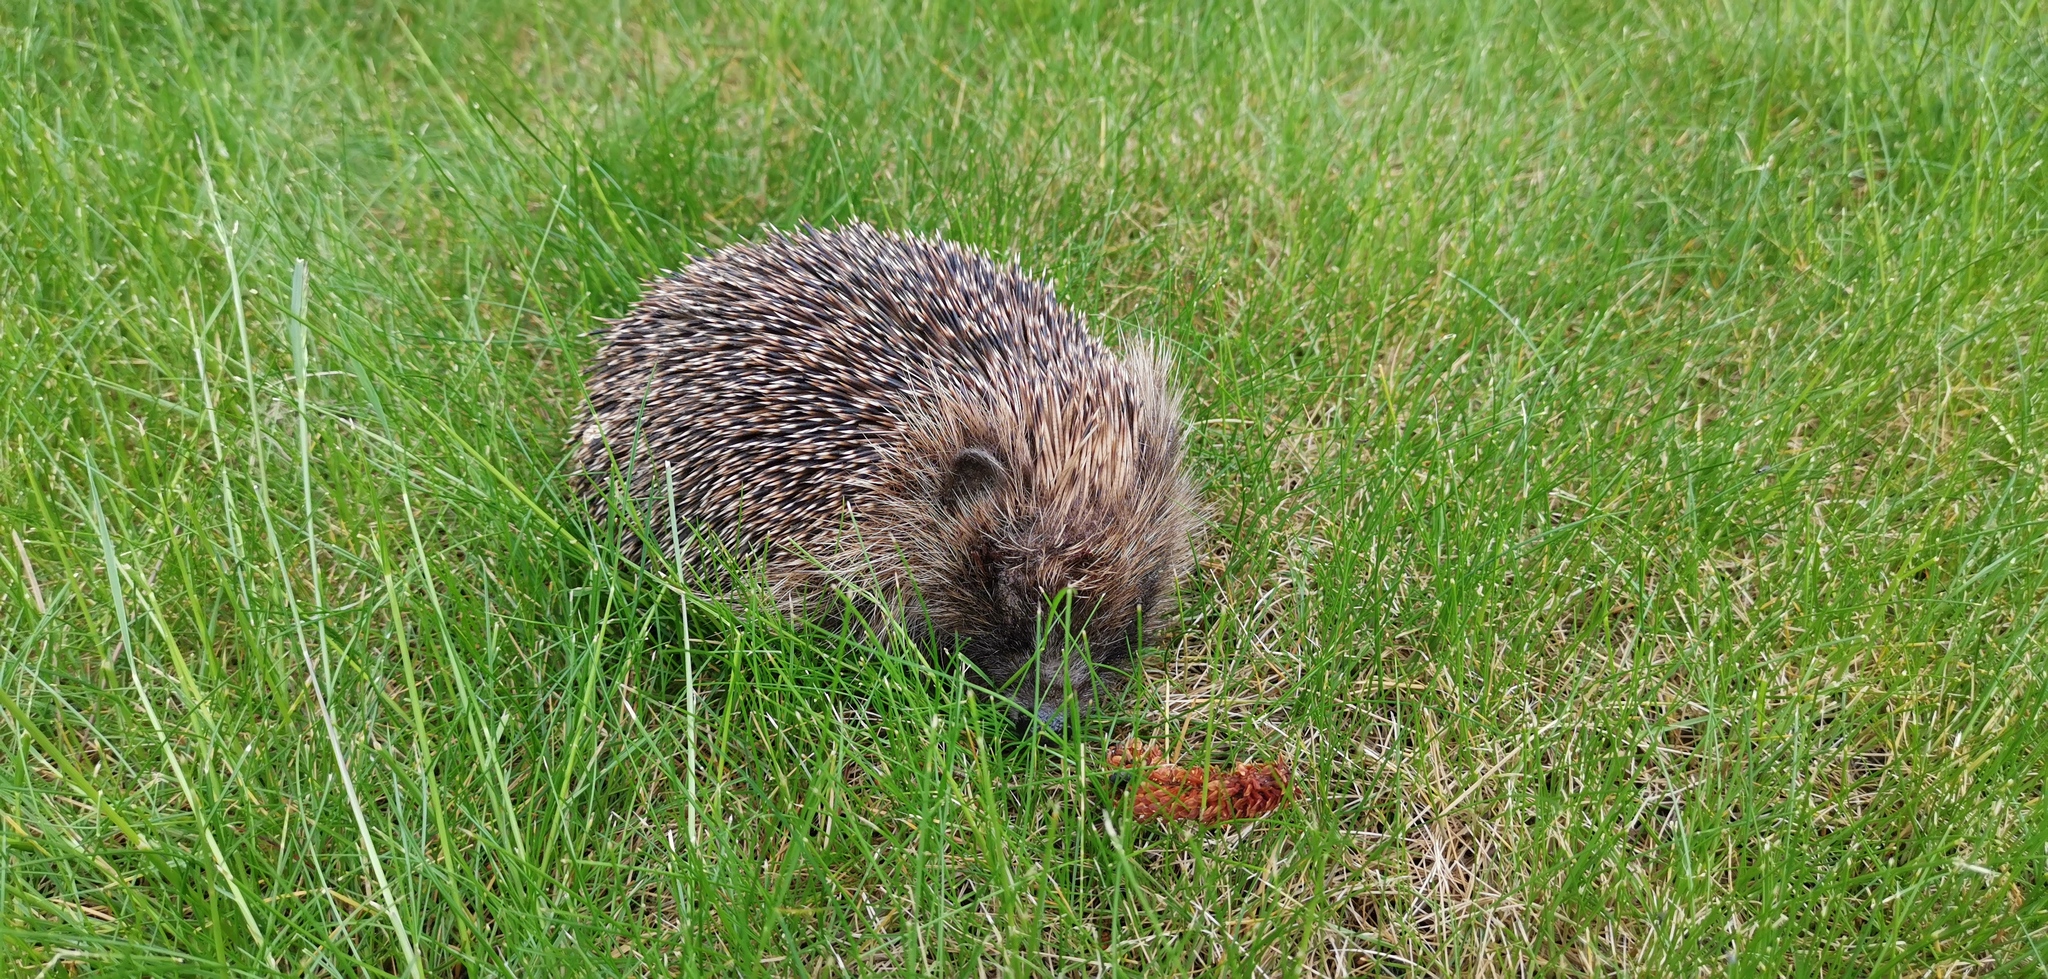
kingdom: Animalia
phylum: Chordata
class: Mammalia
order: Erinaceomorpha
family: Erinaceidae
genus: Erinaceus
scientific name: Erinaceus europaeus
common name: West european hedgehog
